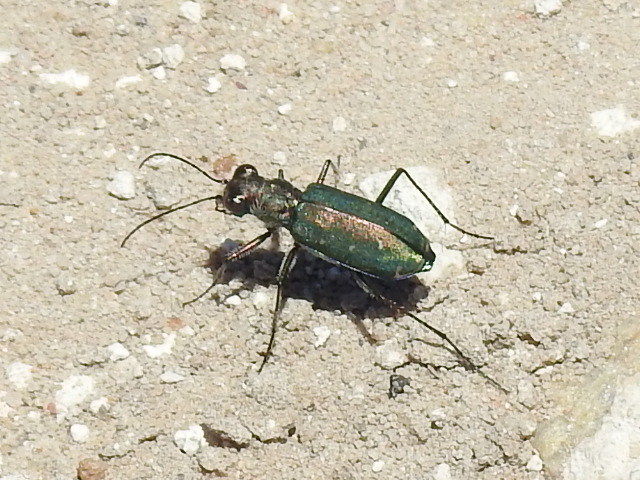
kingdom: Animalia
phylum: Arthropoda
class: Insecta
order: Coleoptera
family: Carabidae
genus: Cicindela
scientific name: Cicindela punctulata
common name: Punctured tiger beetle
